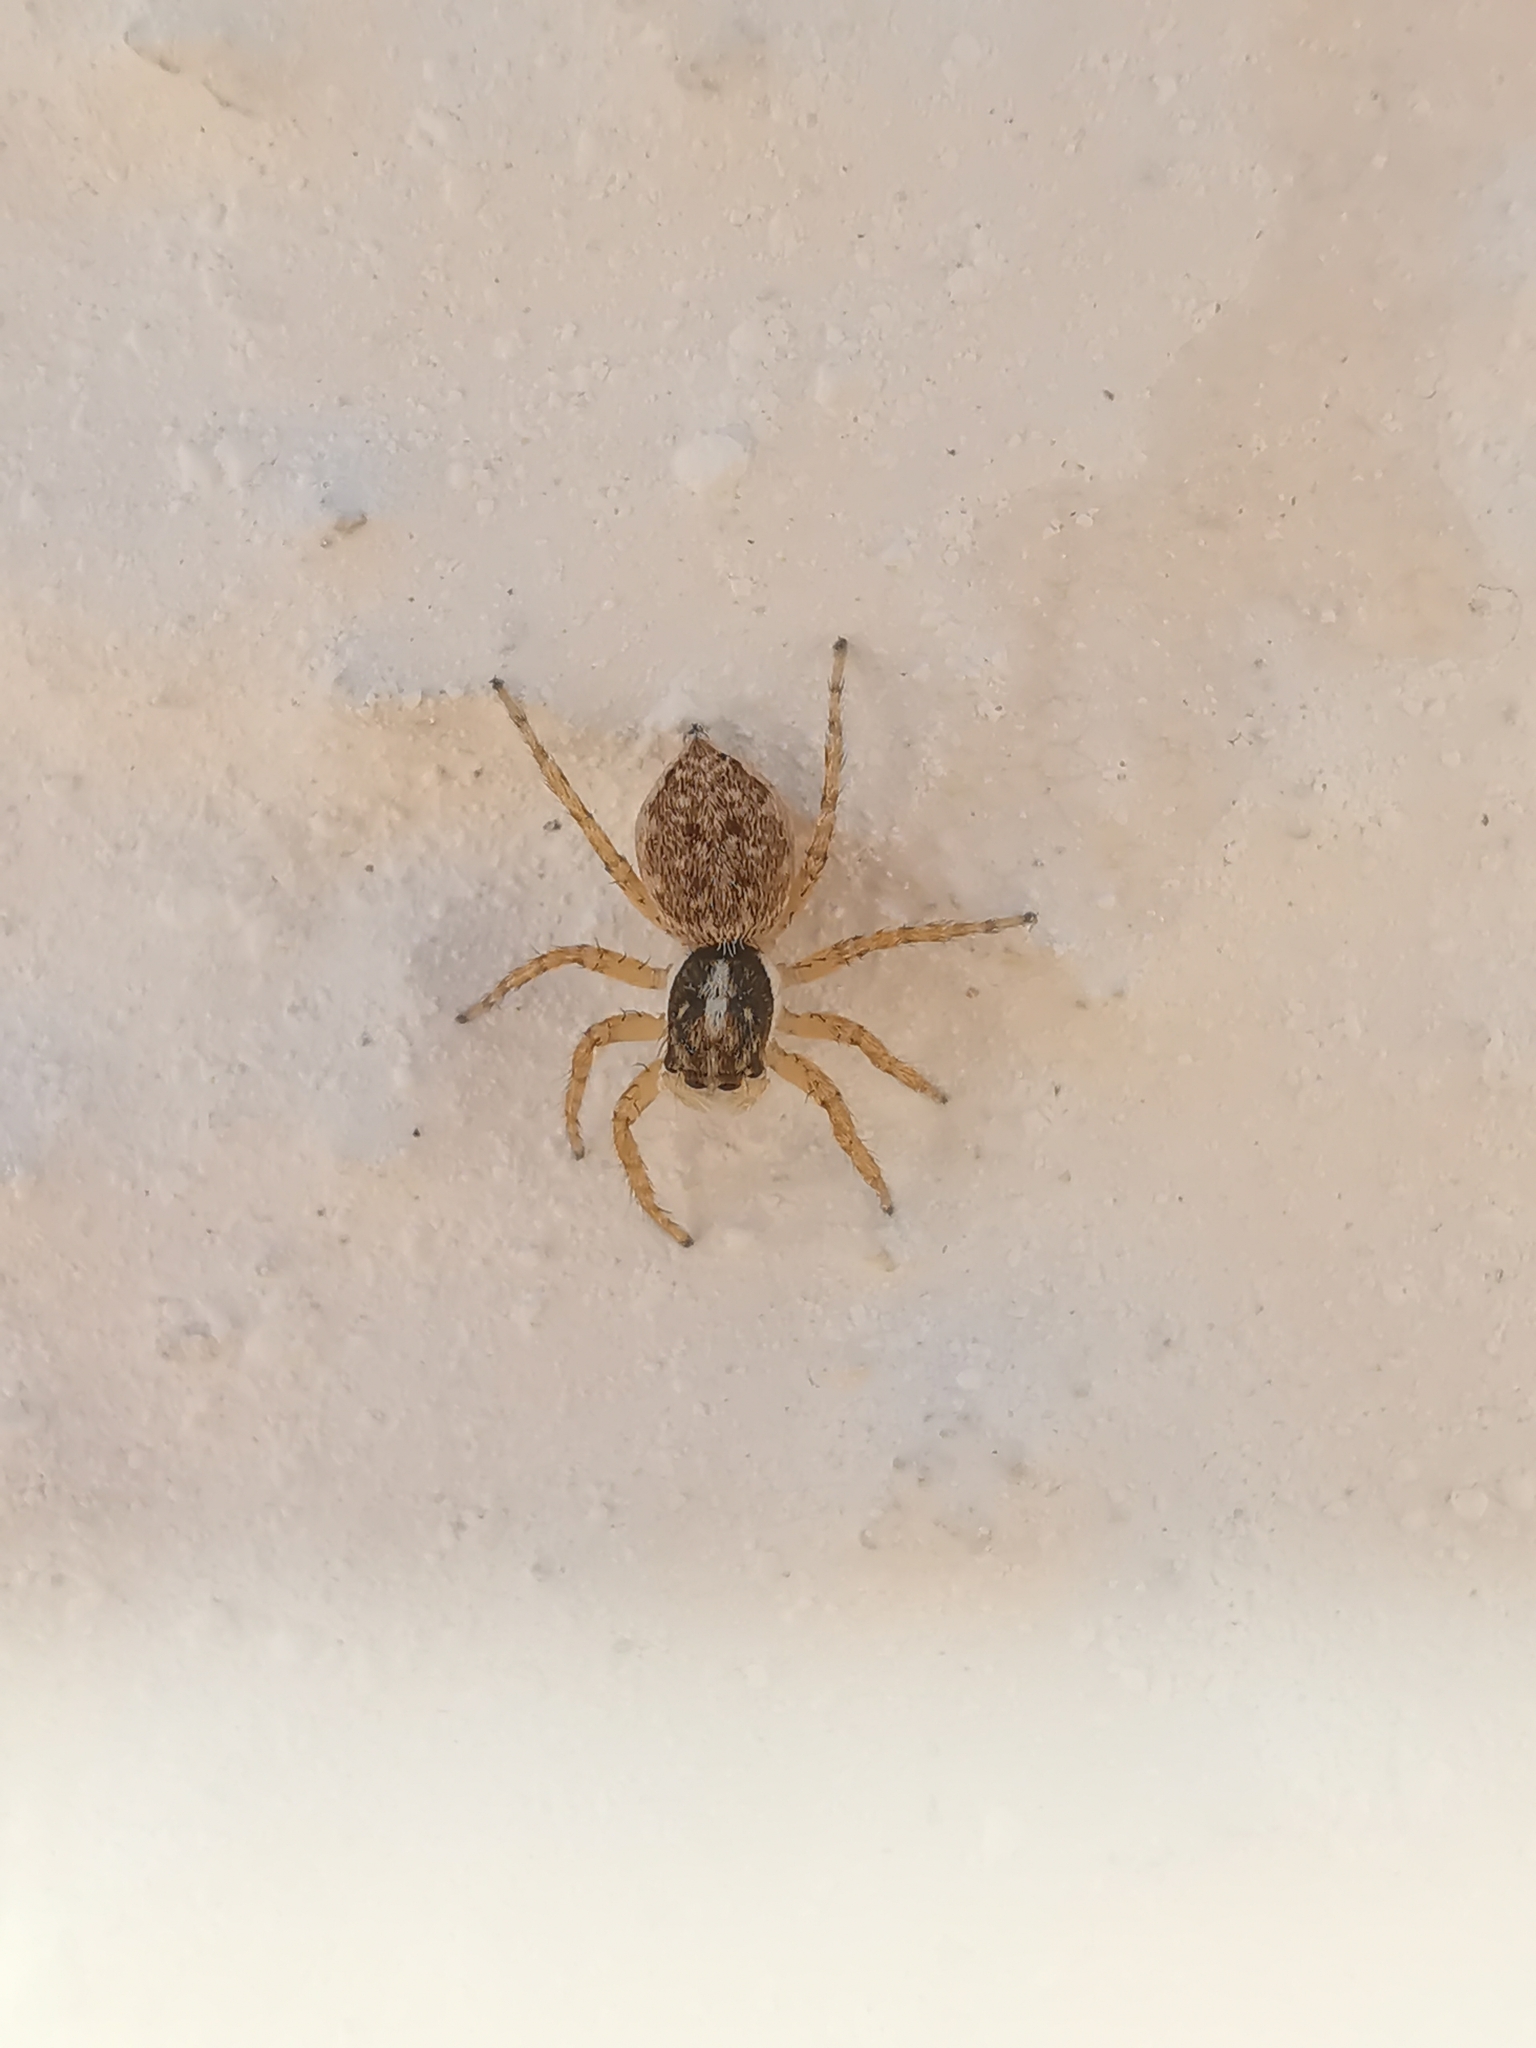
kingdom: Animalia
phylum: Arthropoda
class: Arachnida
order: Araneae
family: Salticidae
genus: Menemerus
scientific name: Menemerus semilimbatus
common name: Jumping spider
